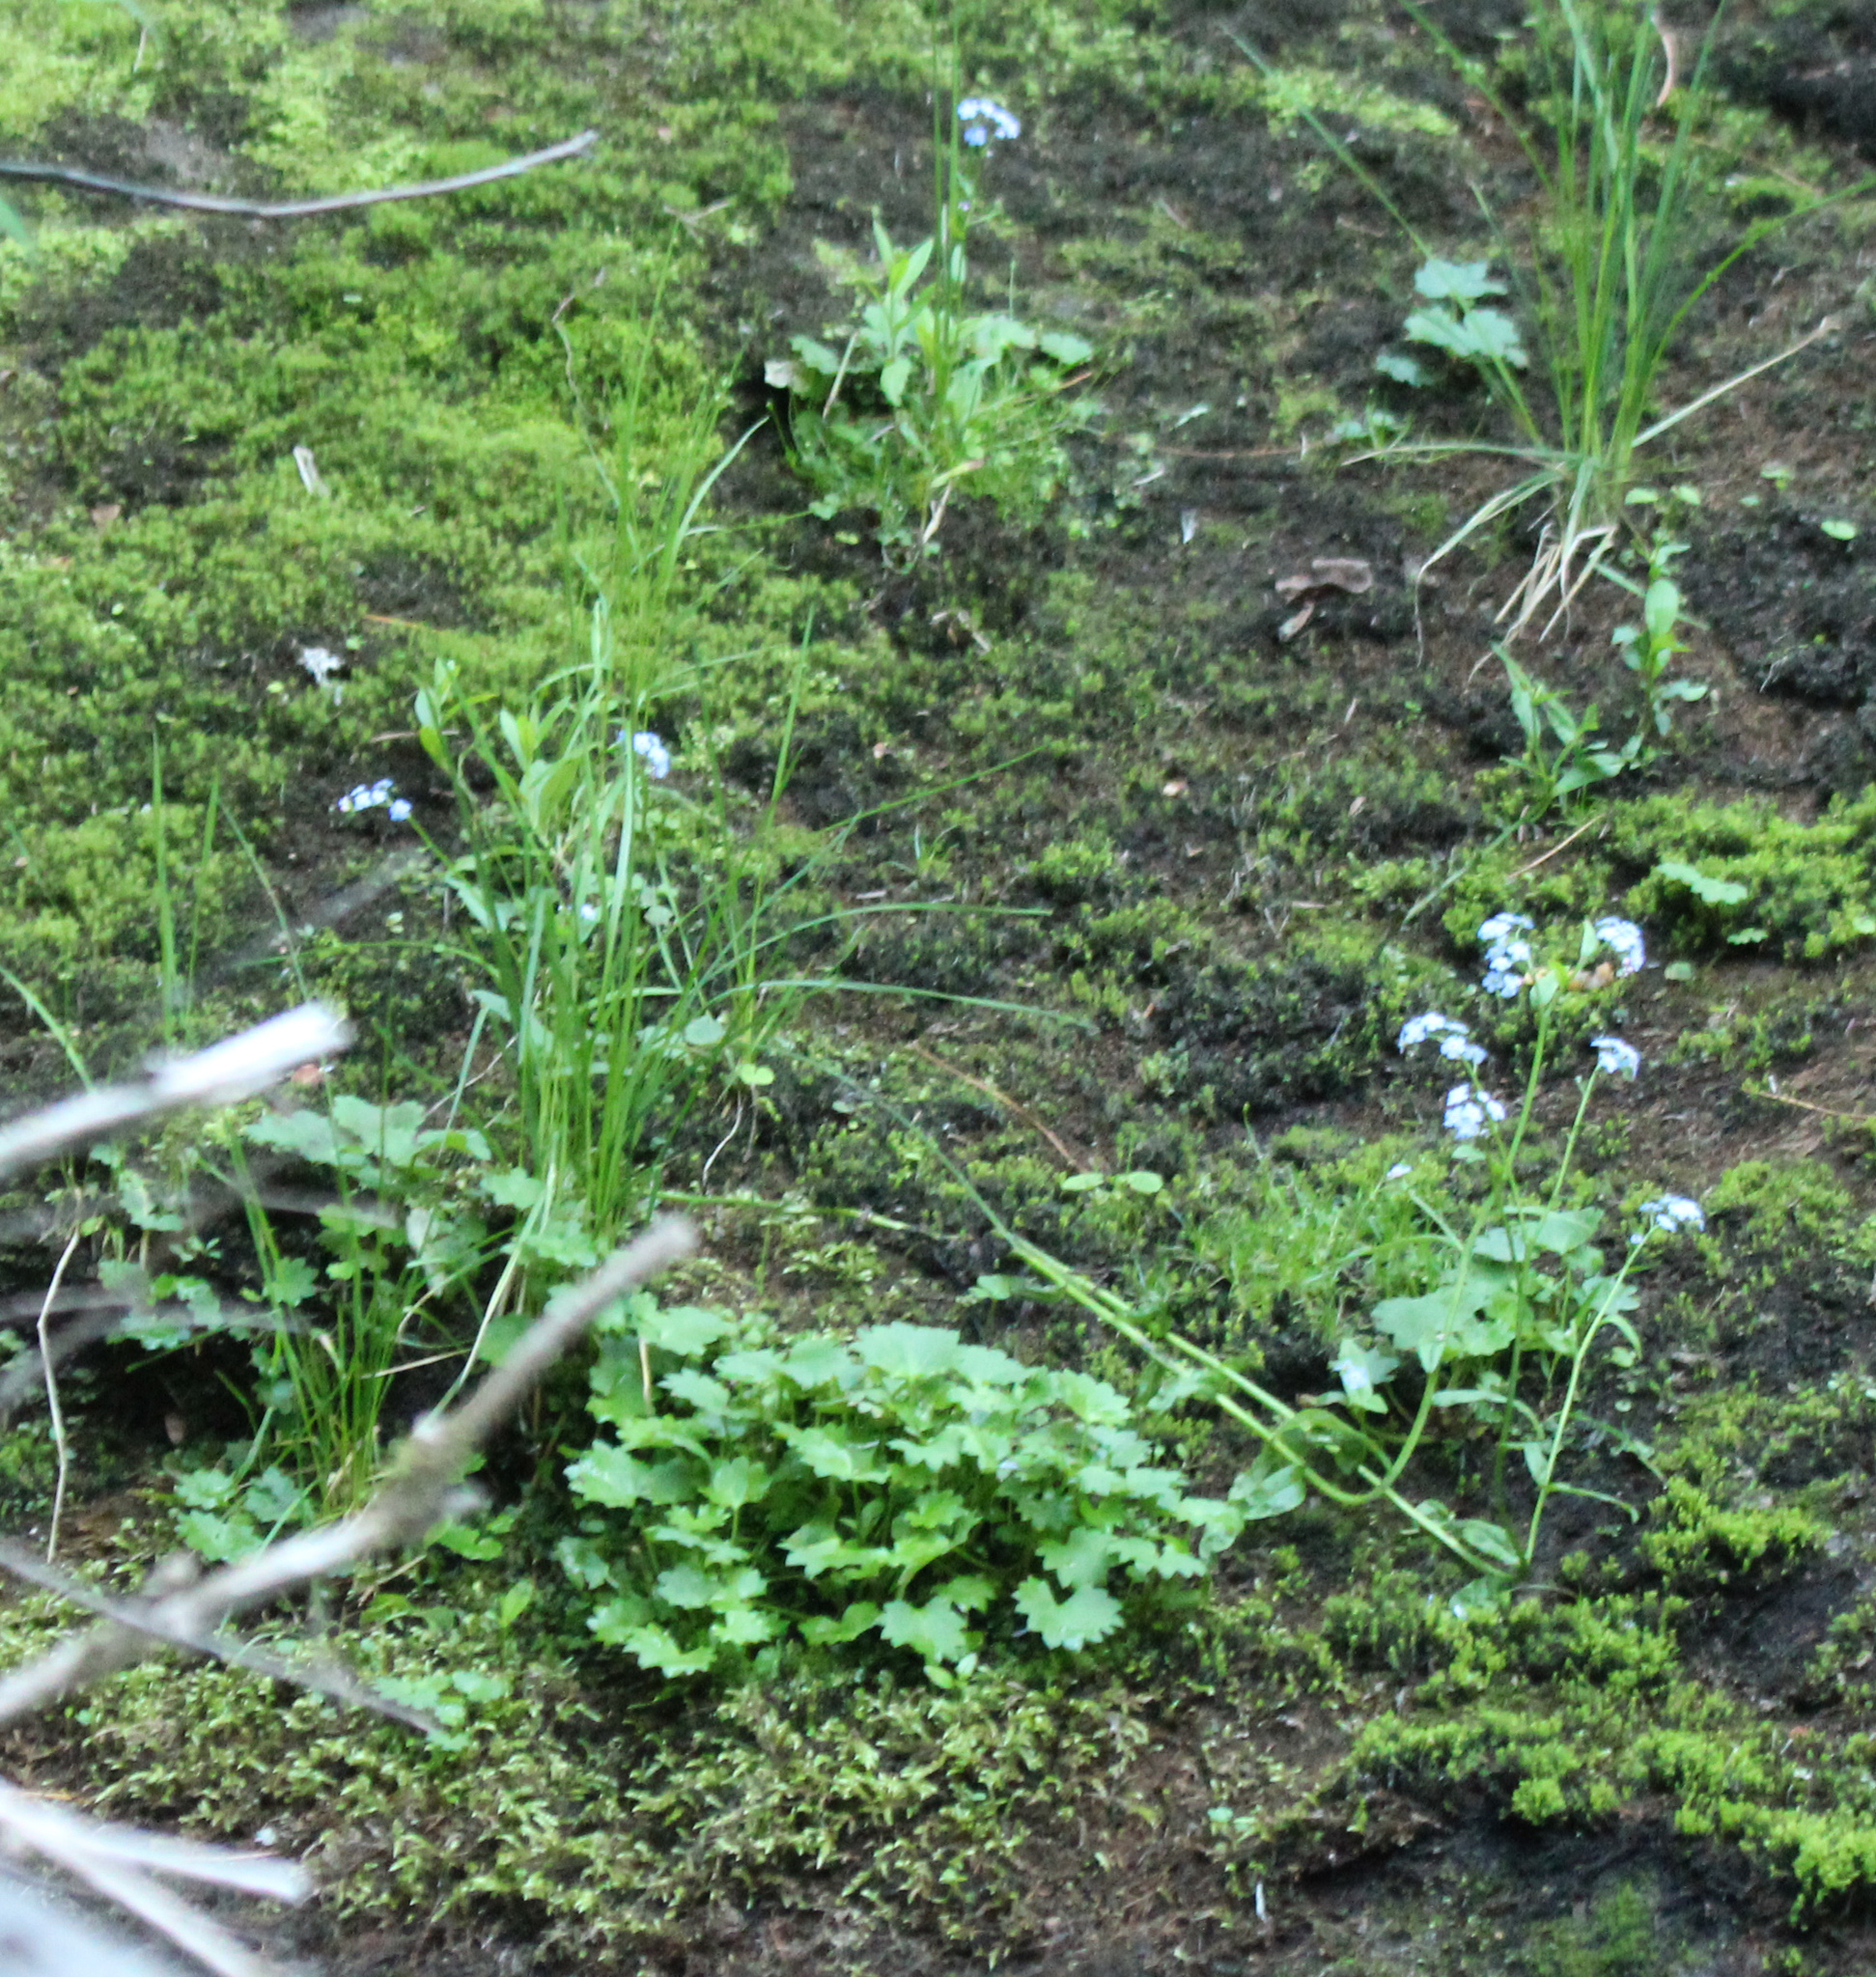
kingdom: Plantae
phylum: Tracheophyta
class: Magnoliopsida
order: Saxifragales
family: Saxifragaceae
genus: Micranthes
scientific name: Micranthes nelsoniana
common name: Nelson's saxifrage
